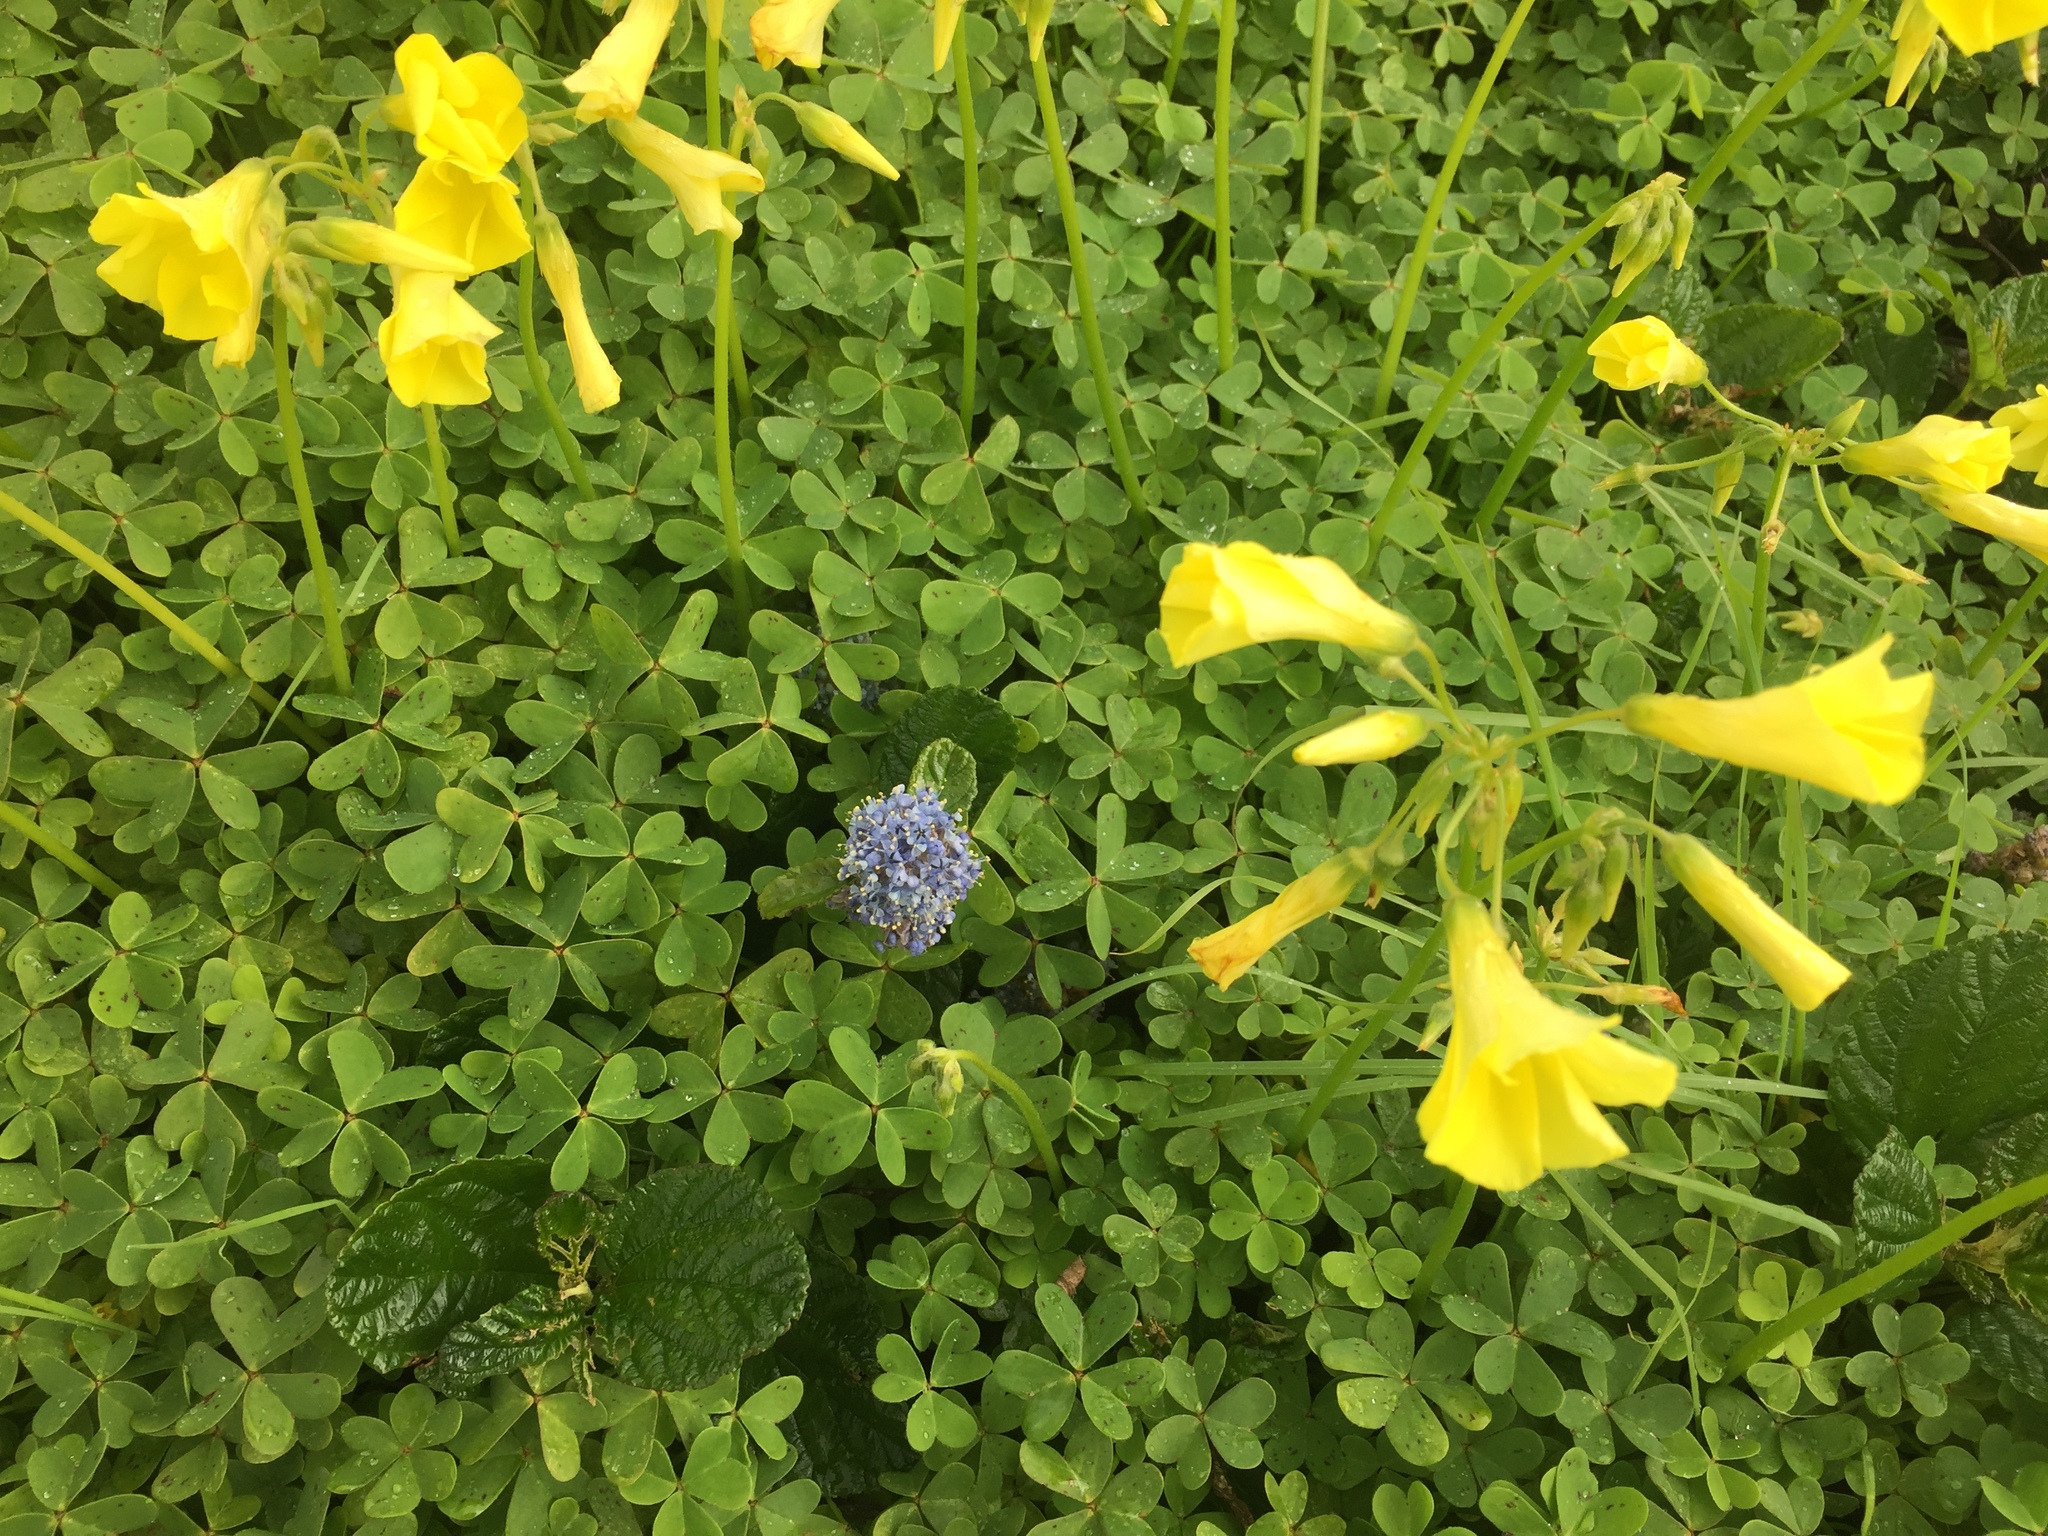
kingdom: Plantae
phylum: Tracheophyta
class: Magnoliopsida
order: Oxalidales
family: Oxalidaceae
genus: Oxalis
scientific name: Oxalis pes-caprae
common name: Bermuda-buttercup
